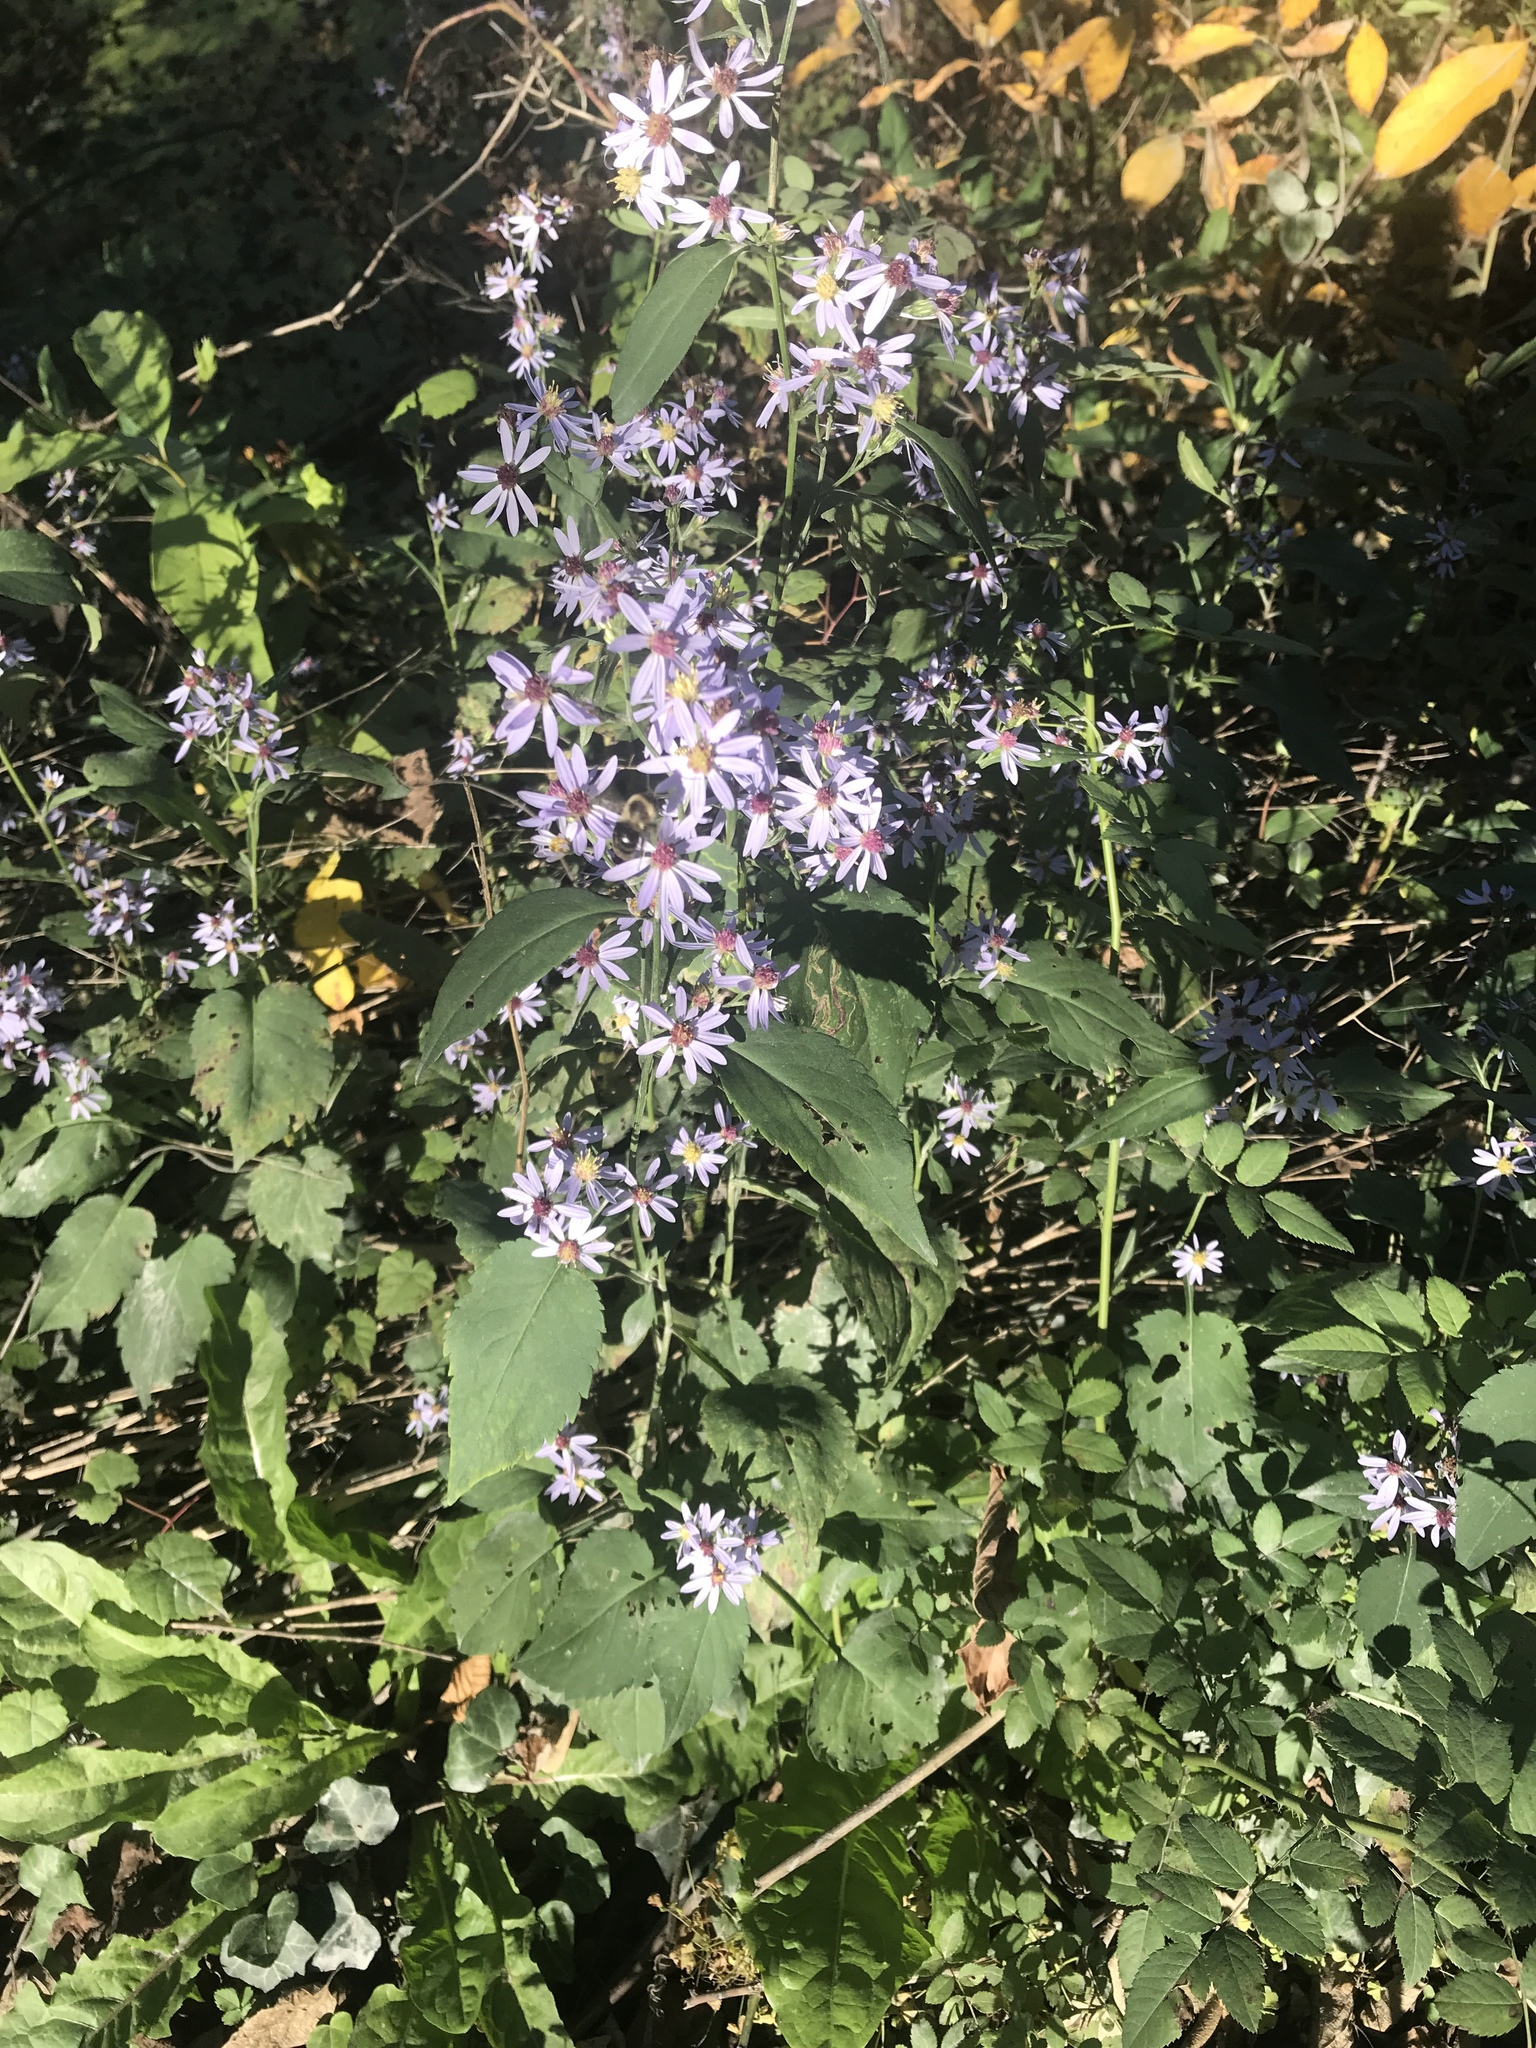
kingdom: Plantae
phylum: Tracheophyta
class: Magnoliopsida
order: Asterales
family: Asteraceae
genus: Symphyotrichum
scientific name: Symphyotrichum cordifolium
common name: Beeweed
